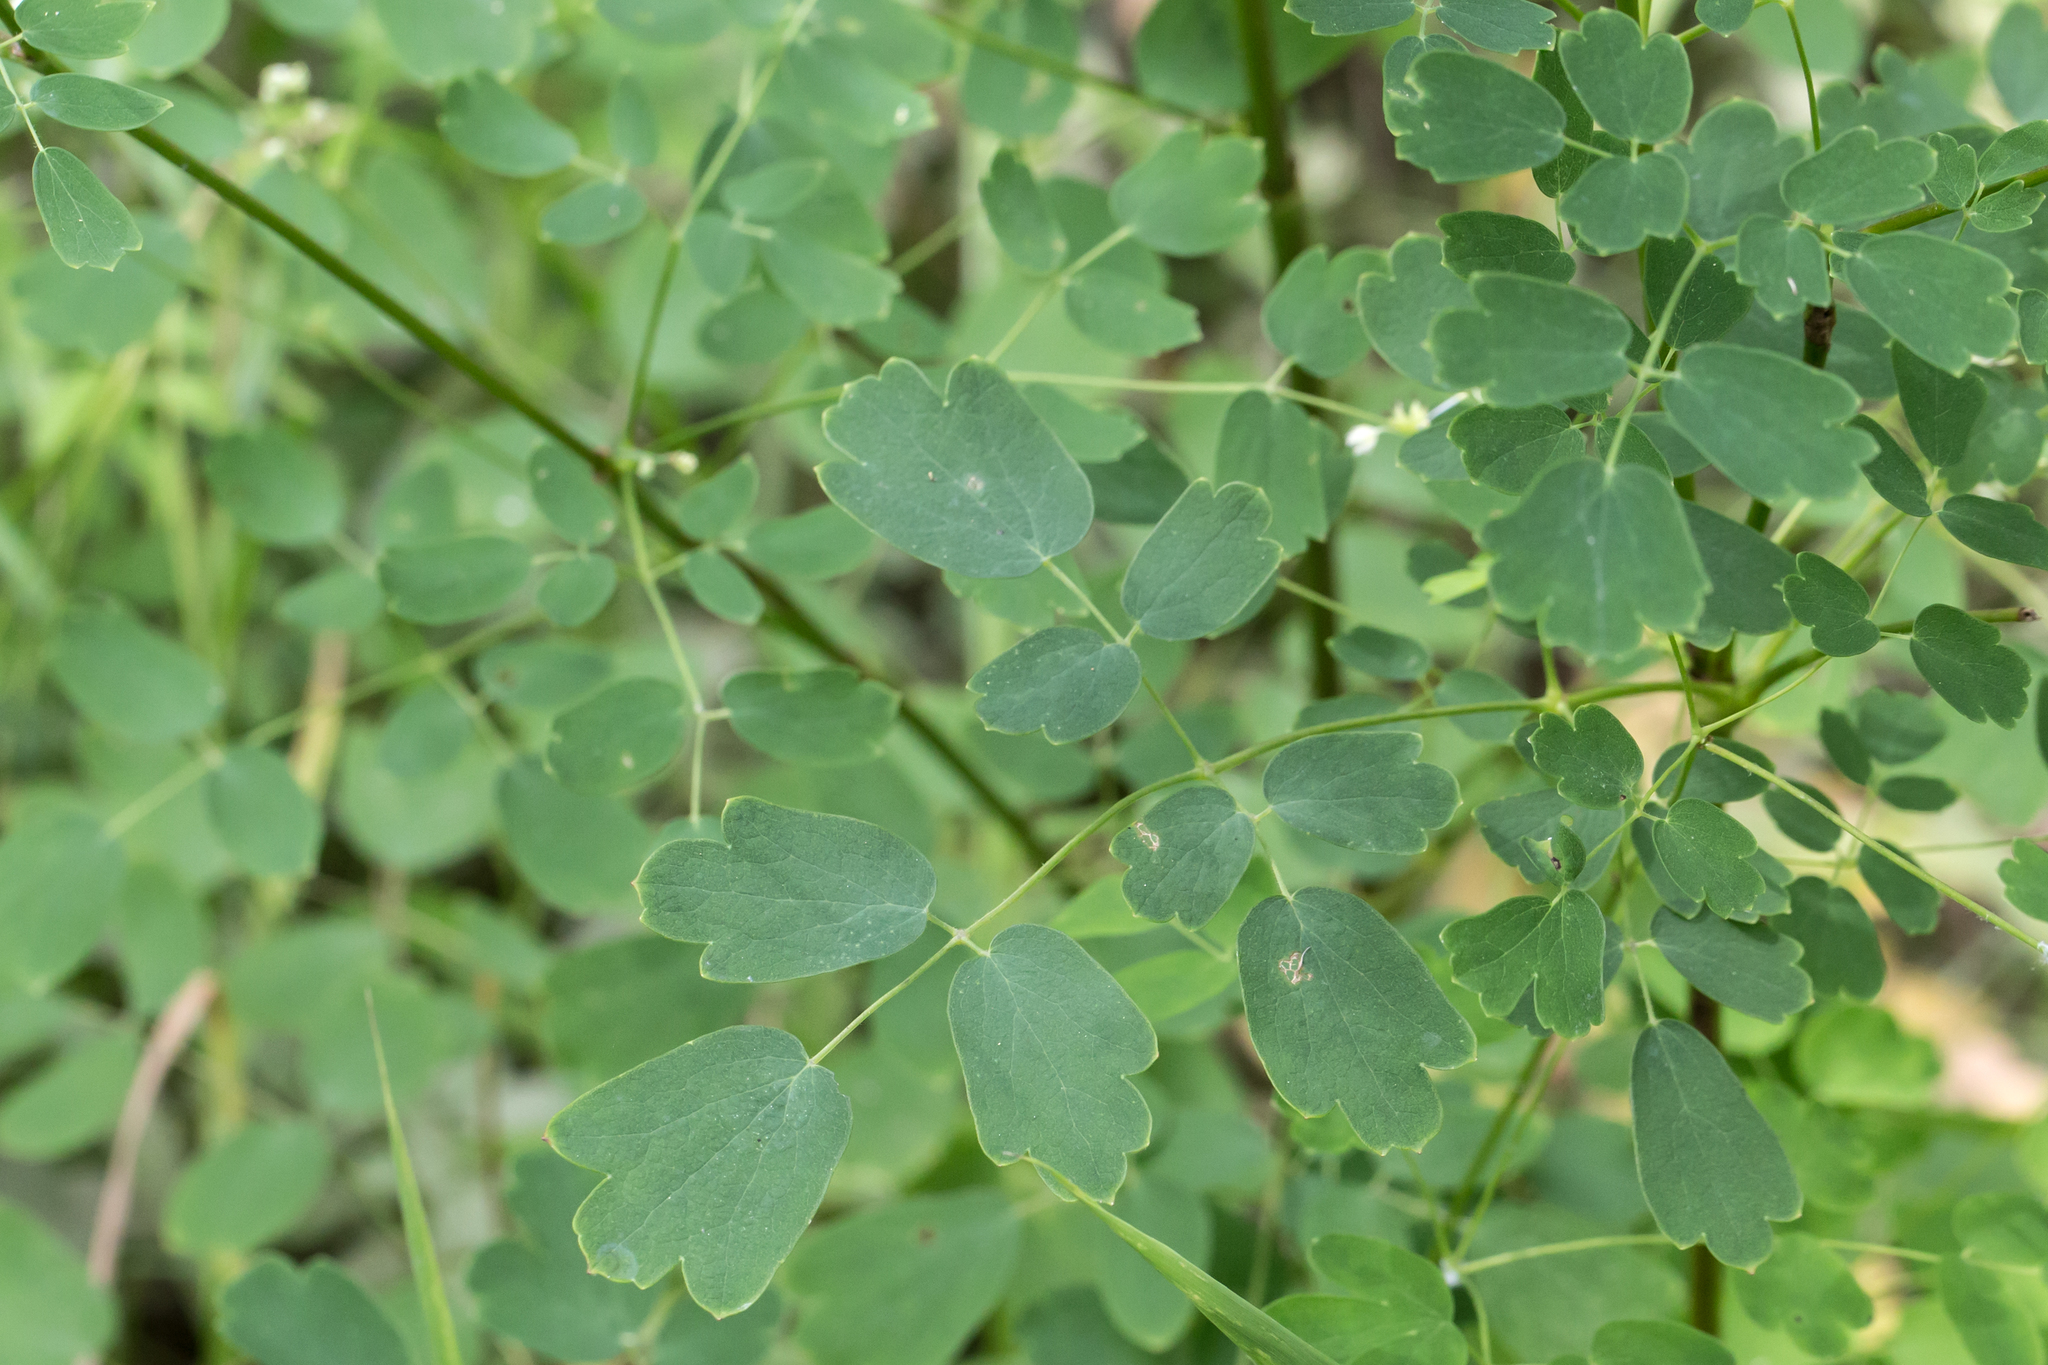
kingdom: Plantae
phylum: Tracheophyta
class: Magnoliopsida
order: Ranunculales
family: Ranunculaceae
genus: Thalictrum
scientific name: Thalictrum pubescens
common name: King-of-the-meadow
